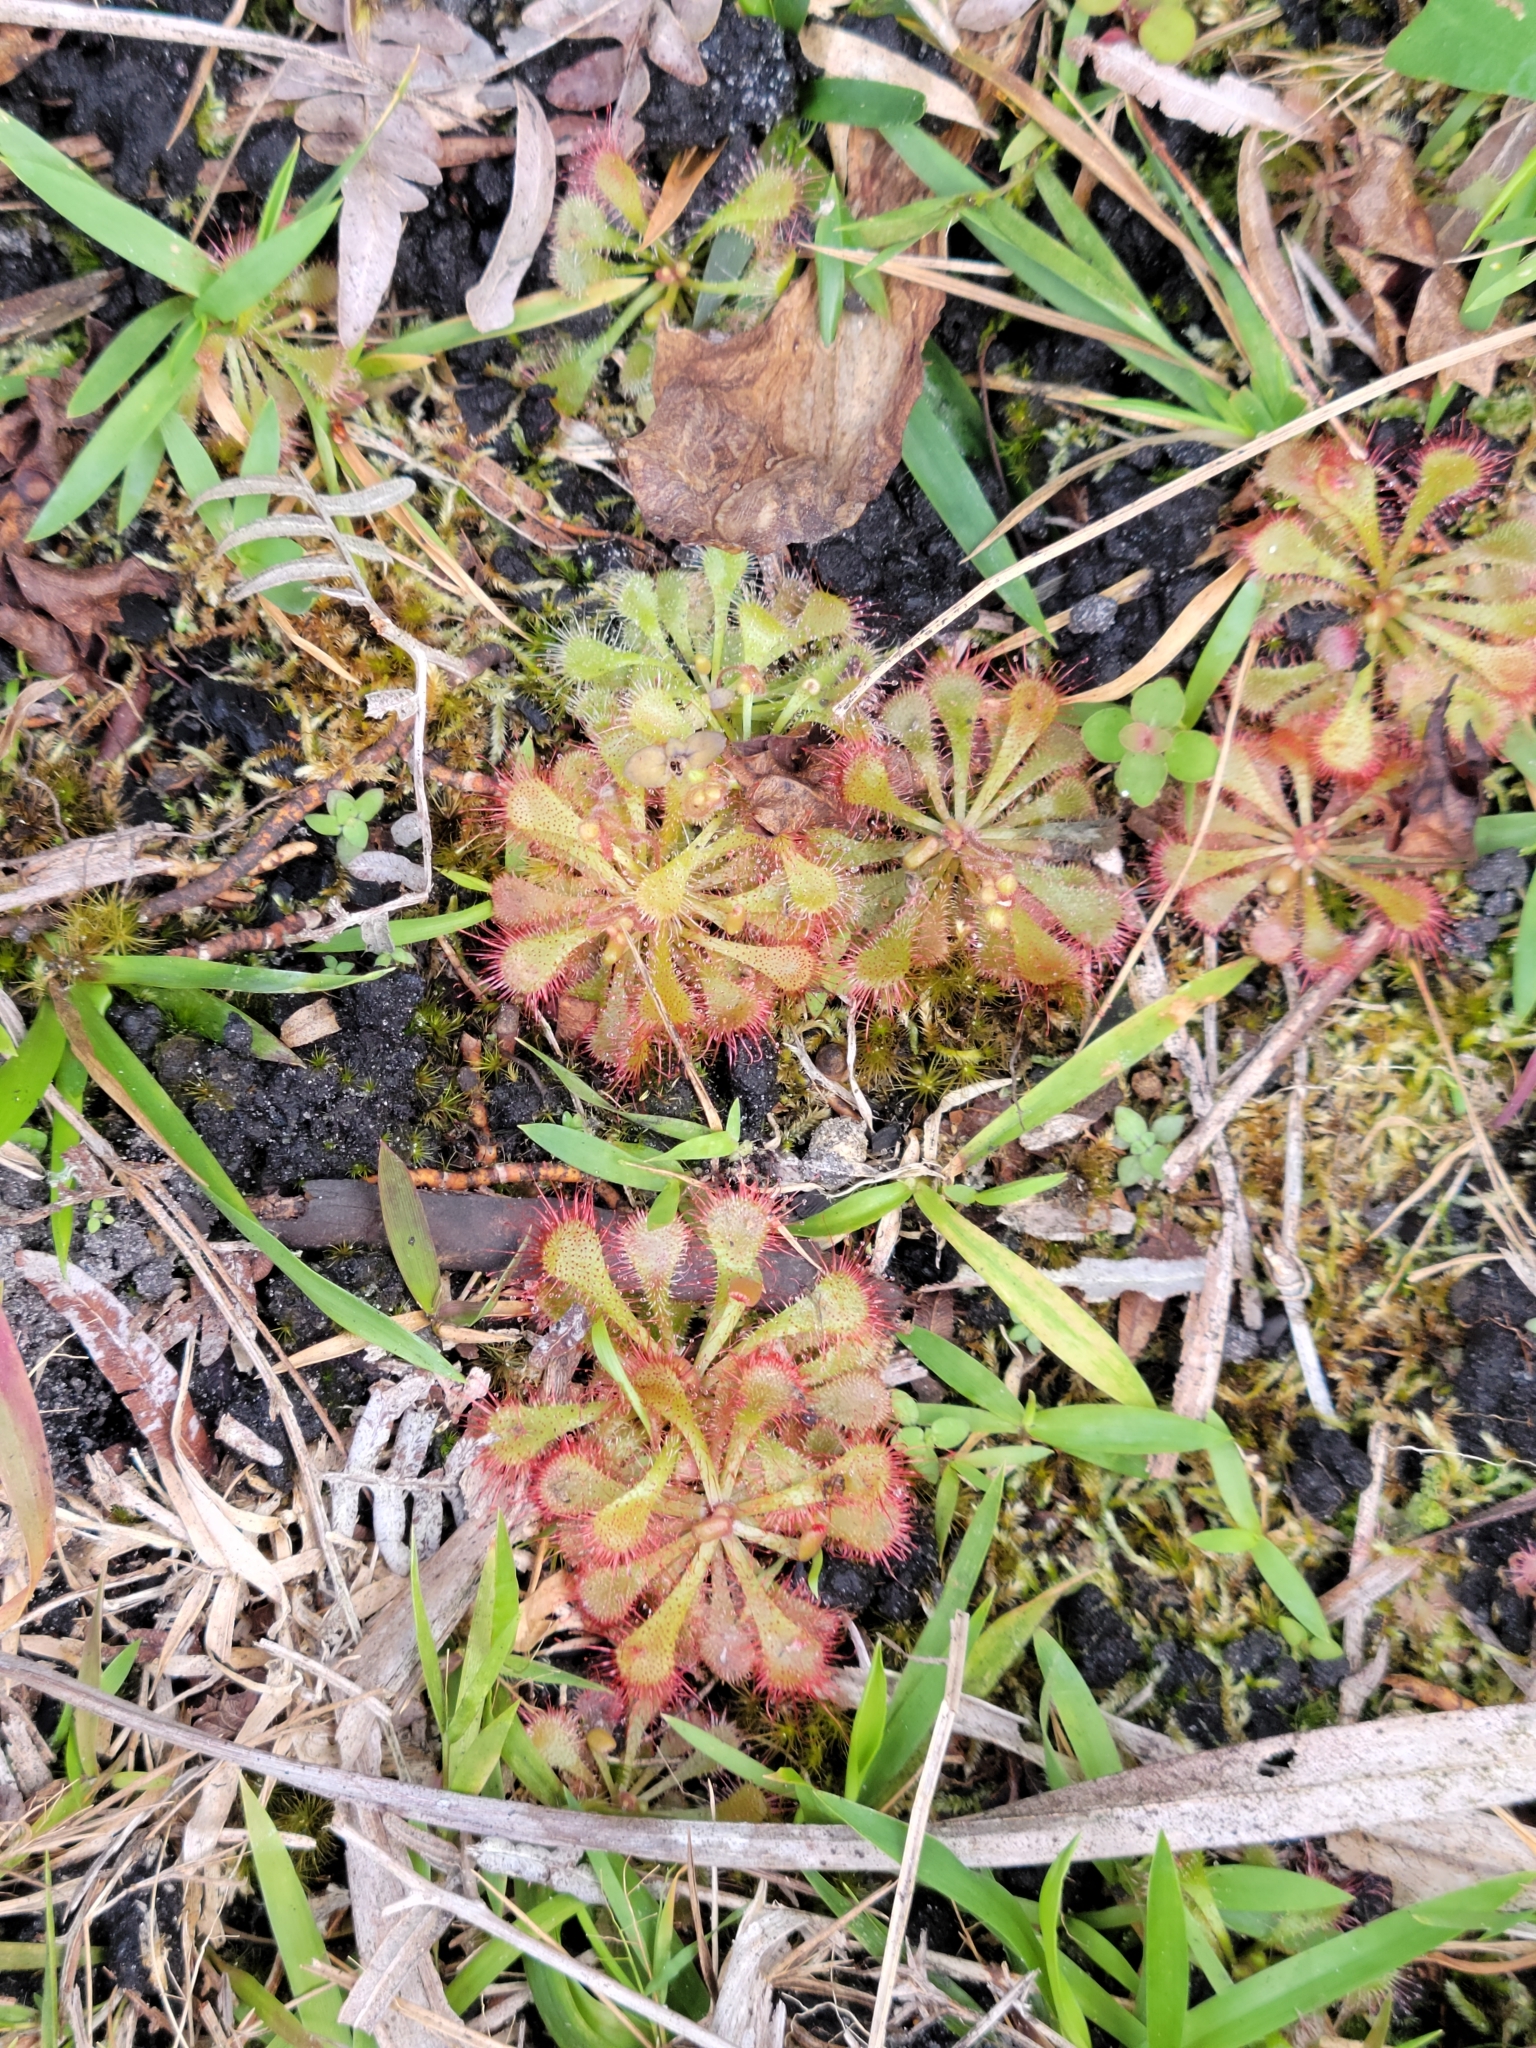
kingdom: Plantae
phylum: Tracheophyta
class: Magnoliopsida
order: Caryophyllales
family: Droseraceae
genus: Drosera
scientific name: Drosera brevifolia
